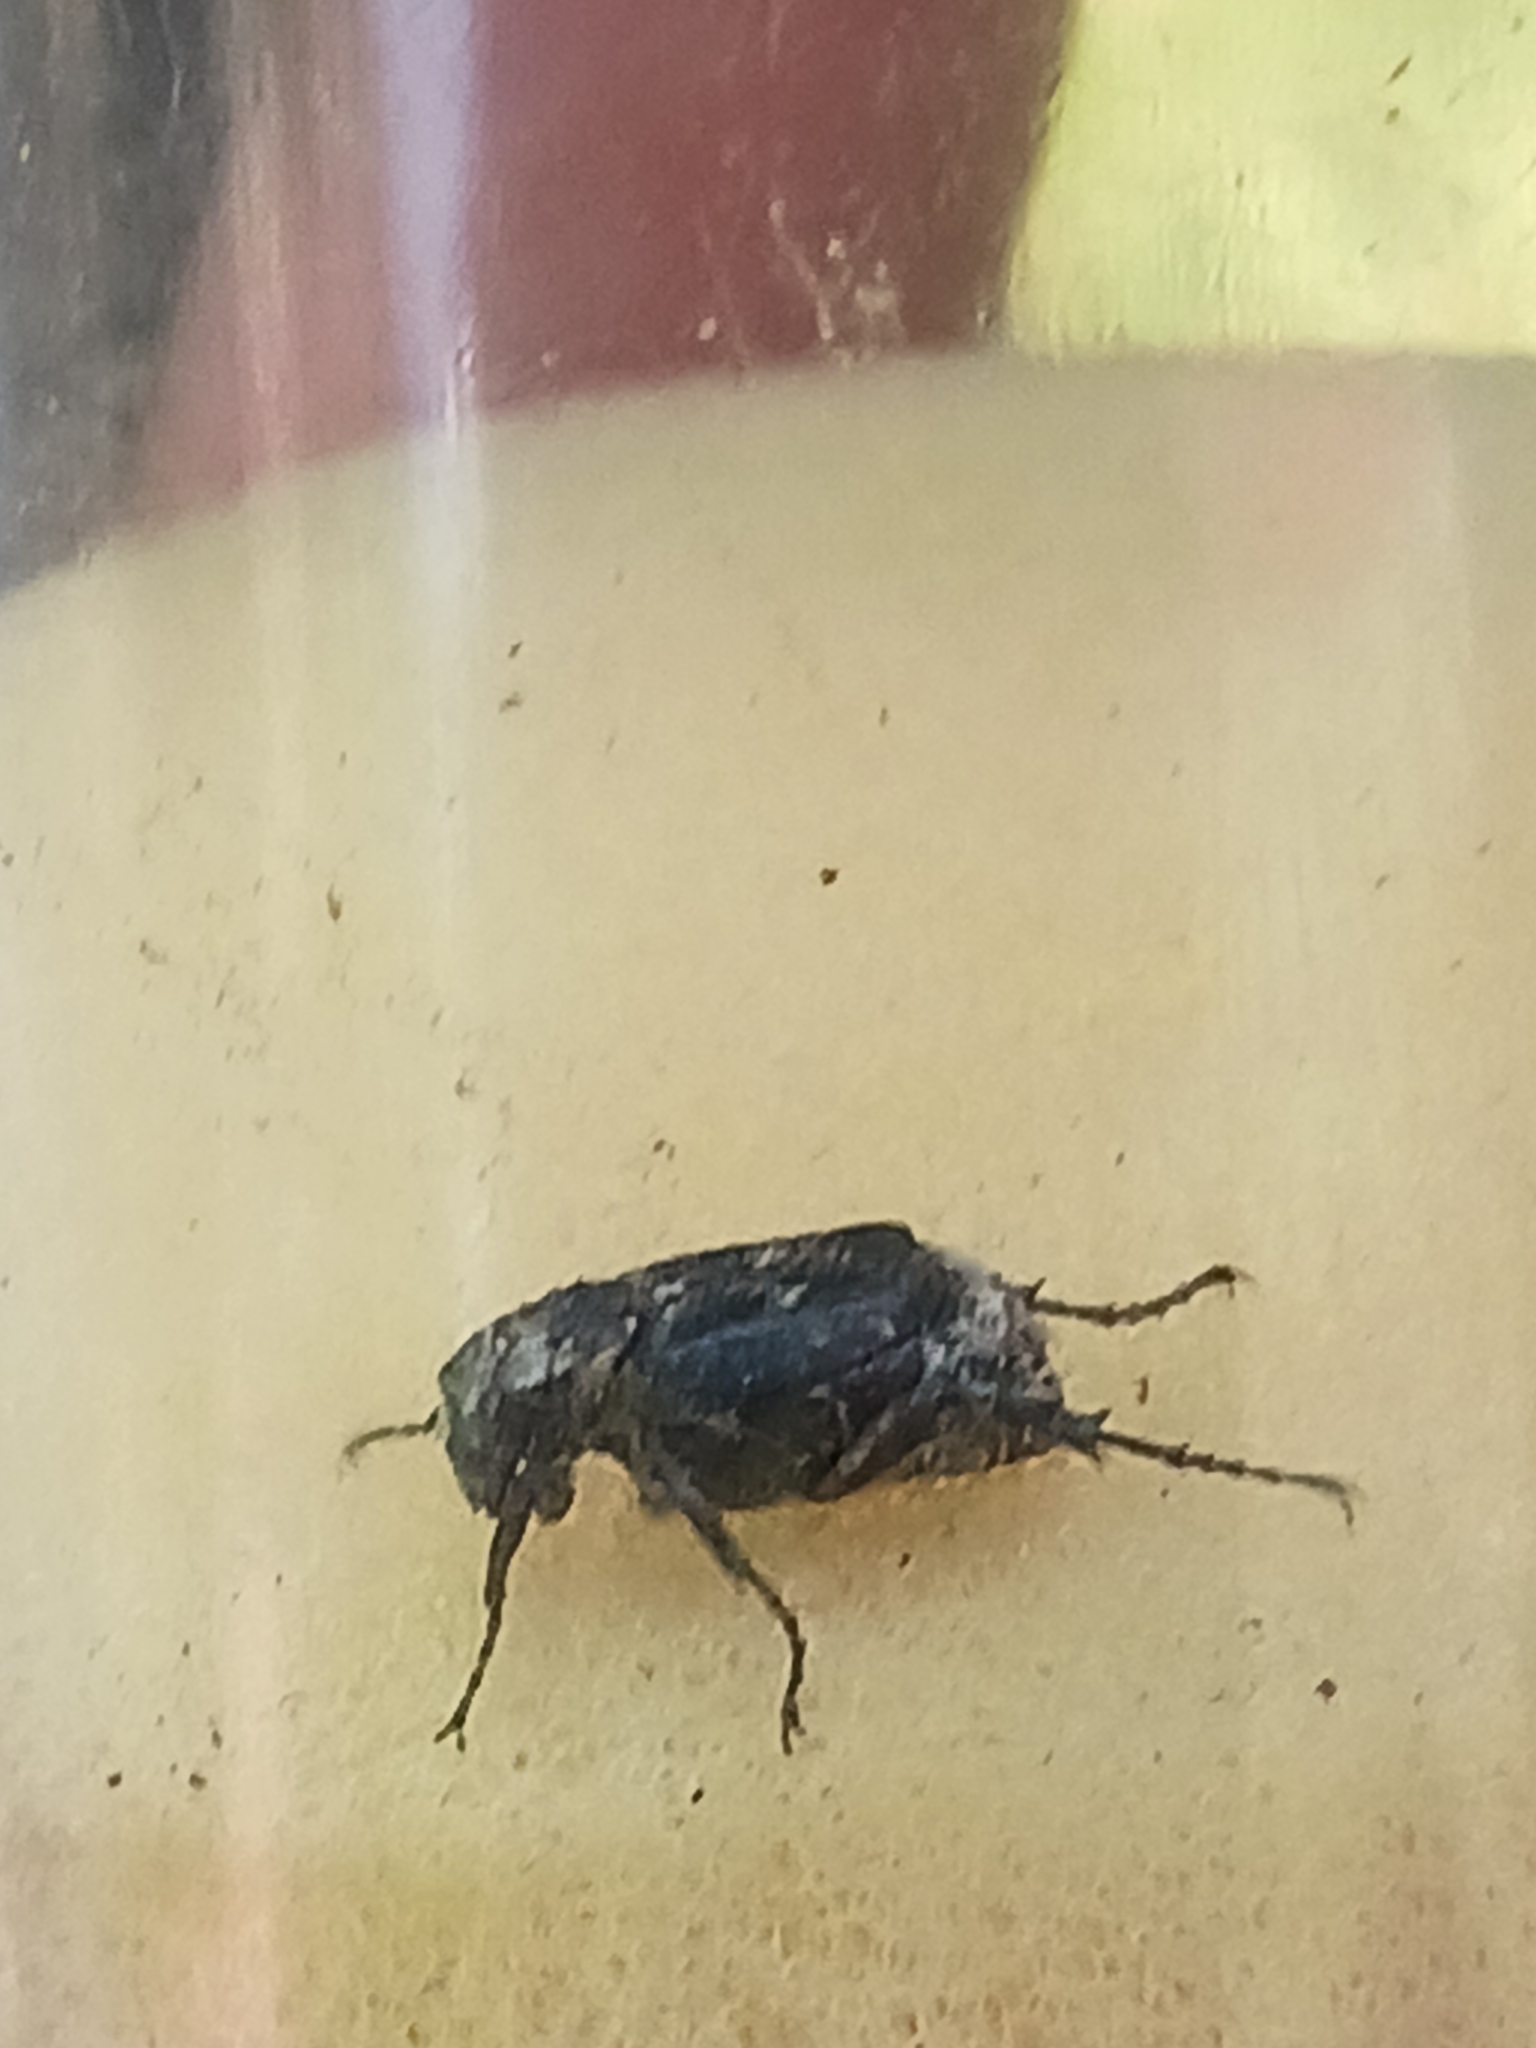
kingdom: Animalia
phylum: Arthropoda
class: Insecta
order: Coleoptera
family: Scarabaeidae
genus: Valgus
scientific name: Valgus hemipterus
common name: Bug flower chafer
